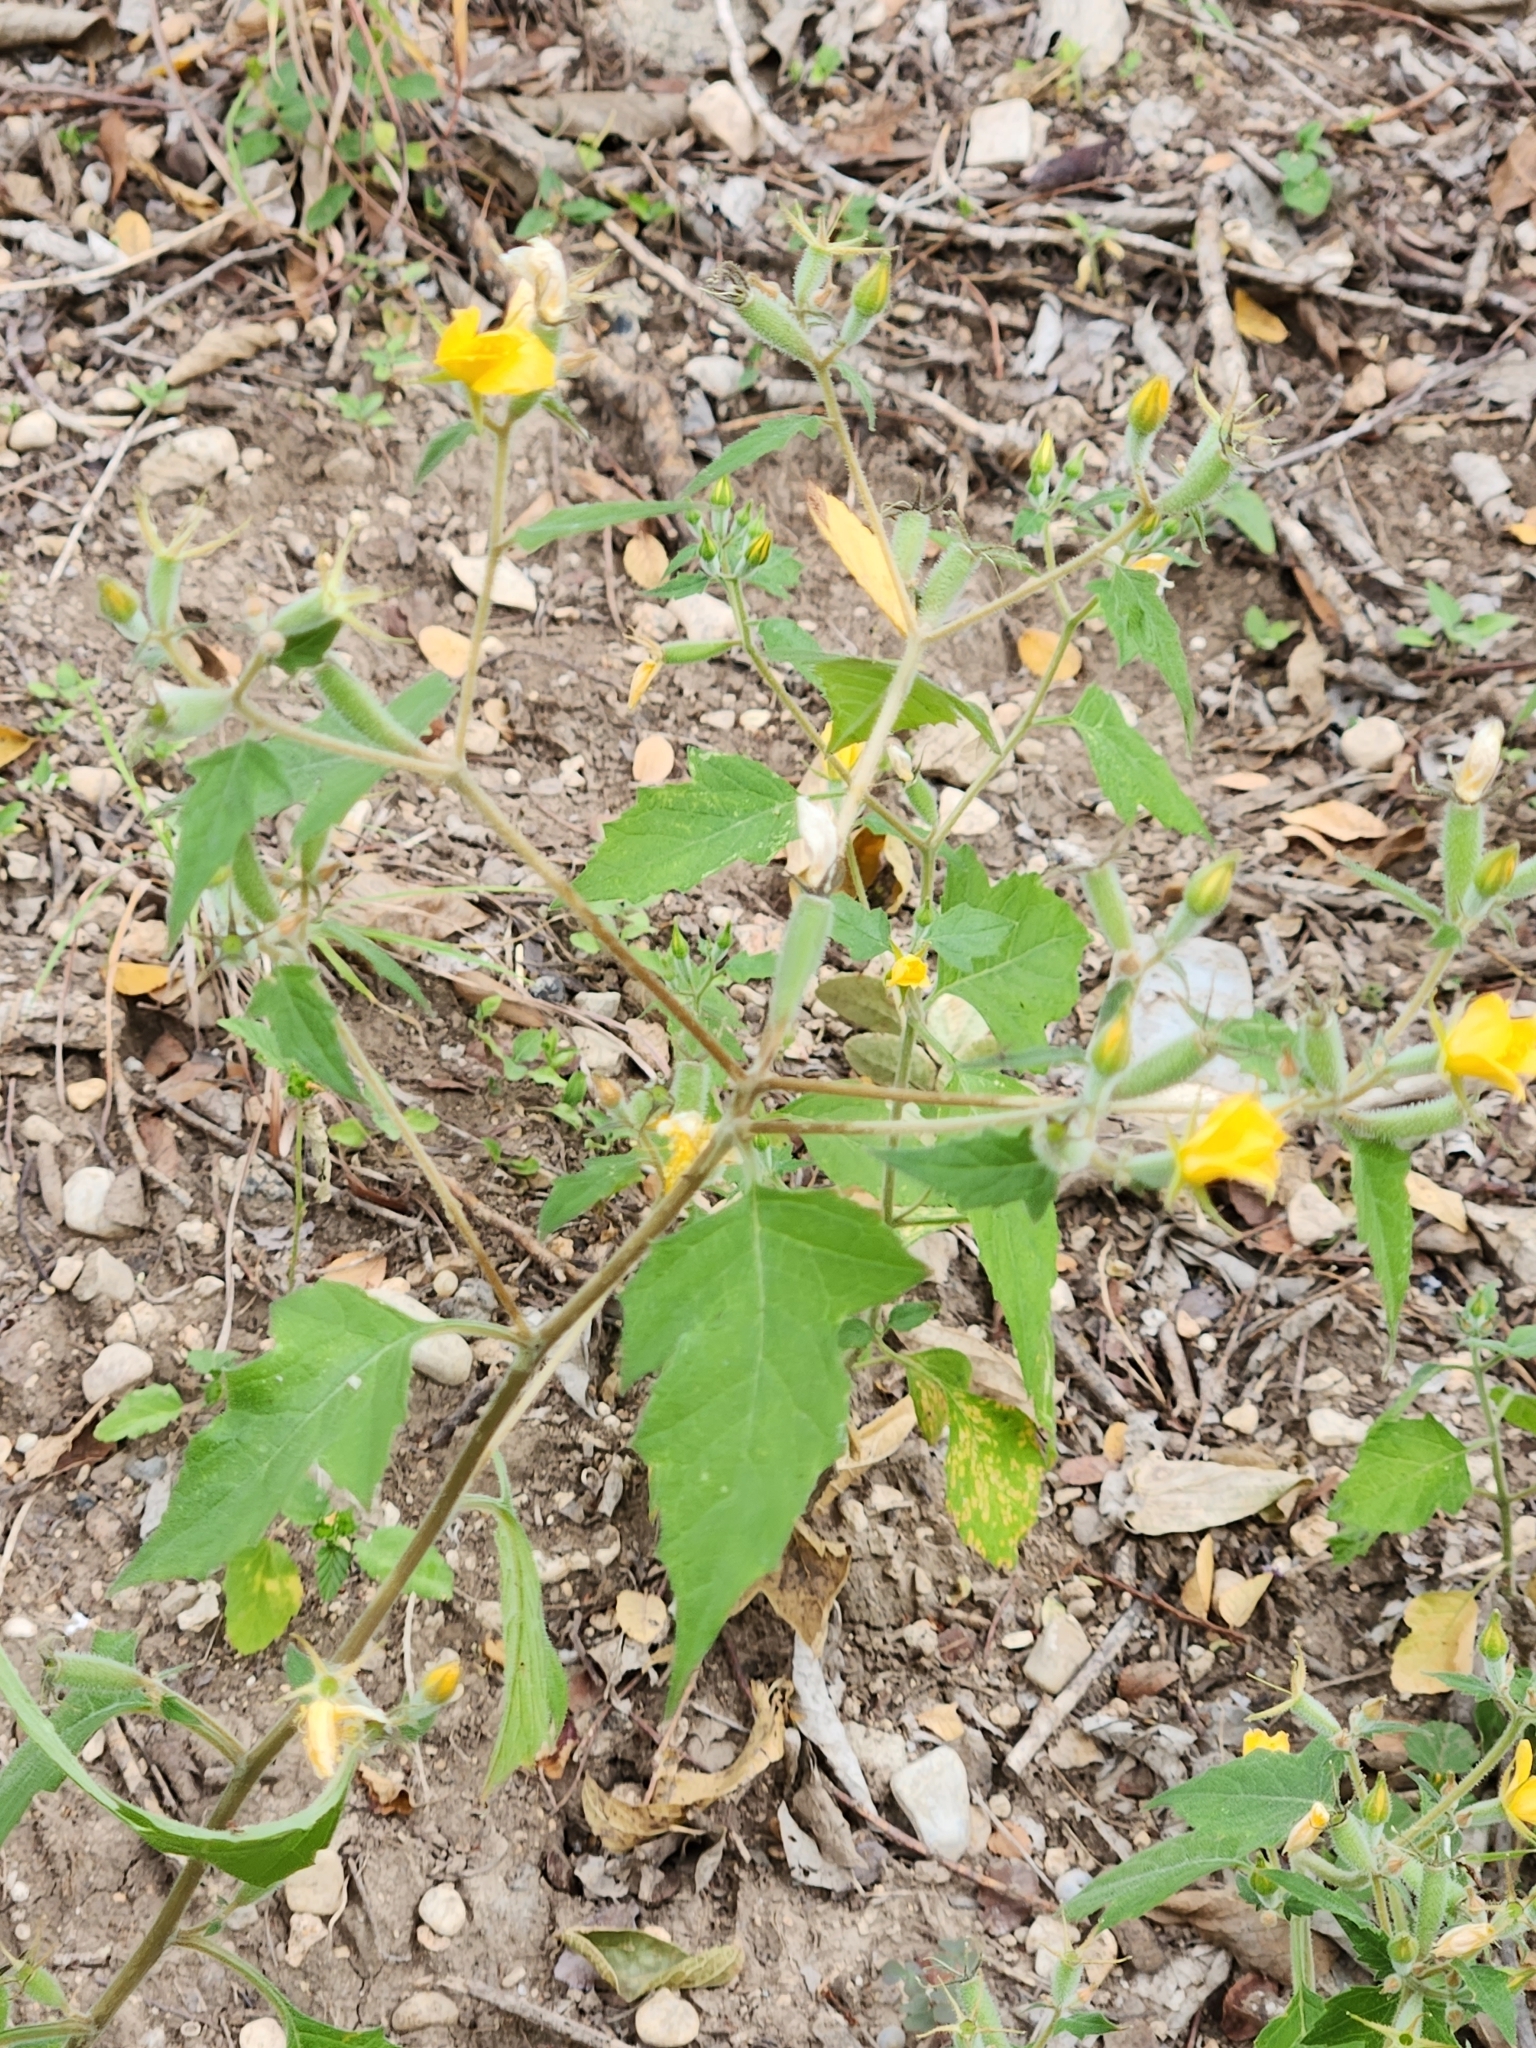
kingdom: Plantae
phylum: Tracheophyta
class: Magnoliopsida
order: Cornales
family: Loasaceae
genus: Mentzelia
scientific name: Mentzelia oligosperma
